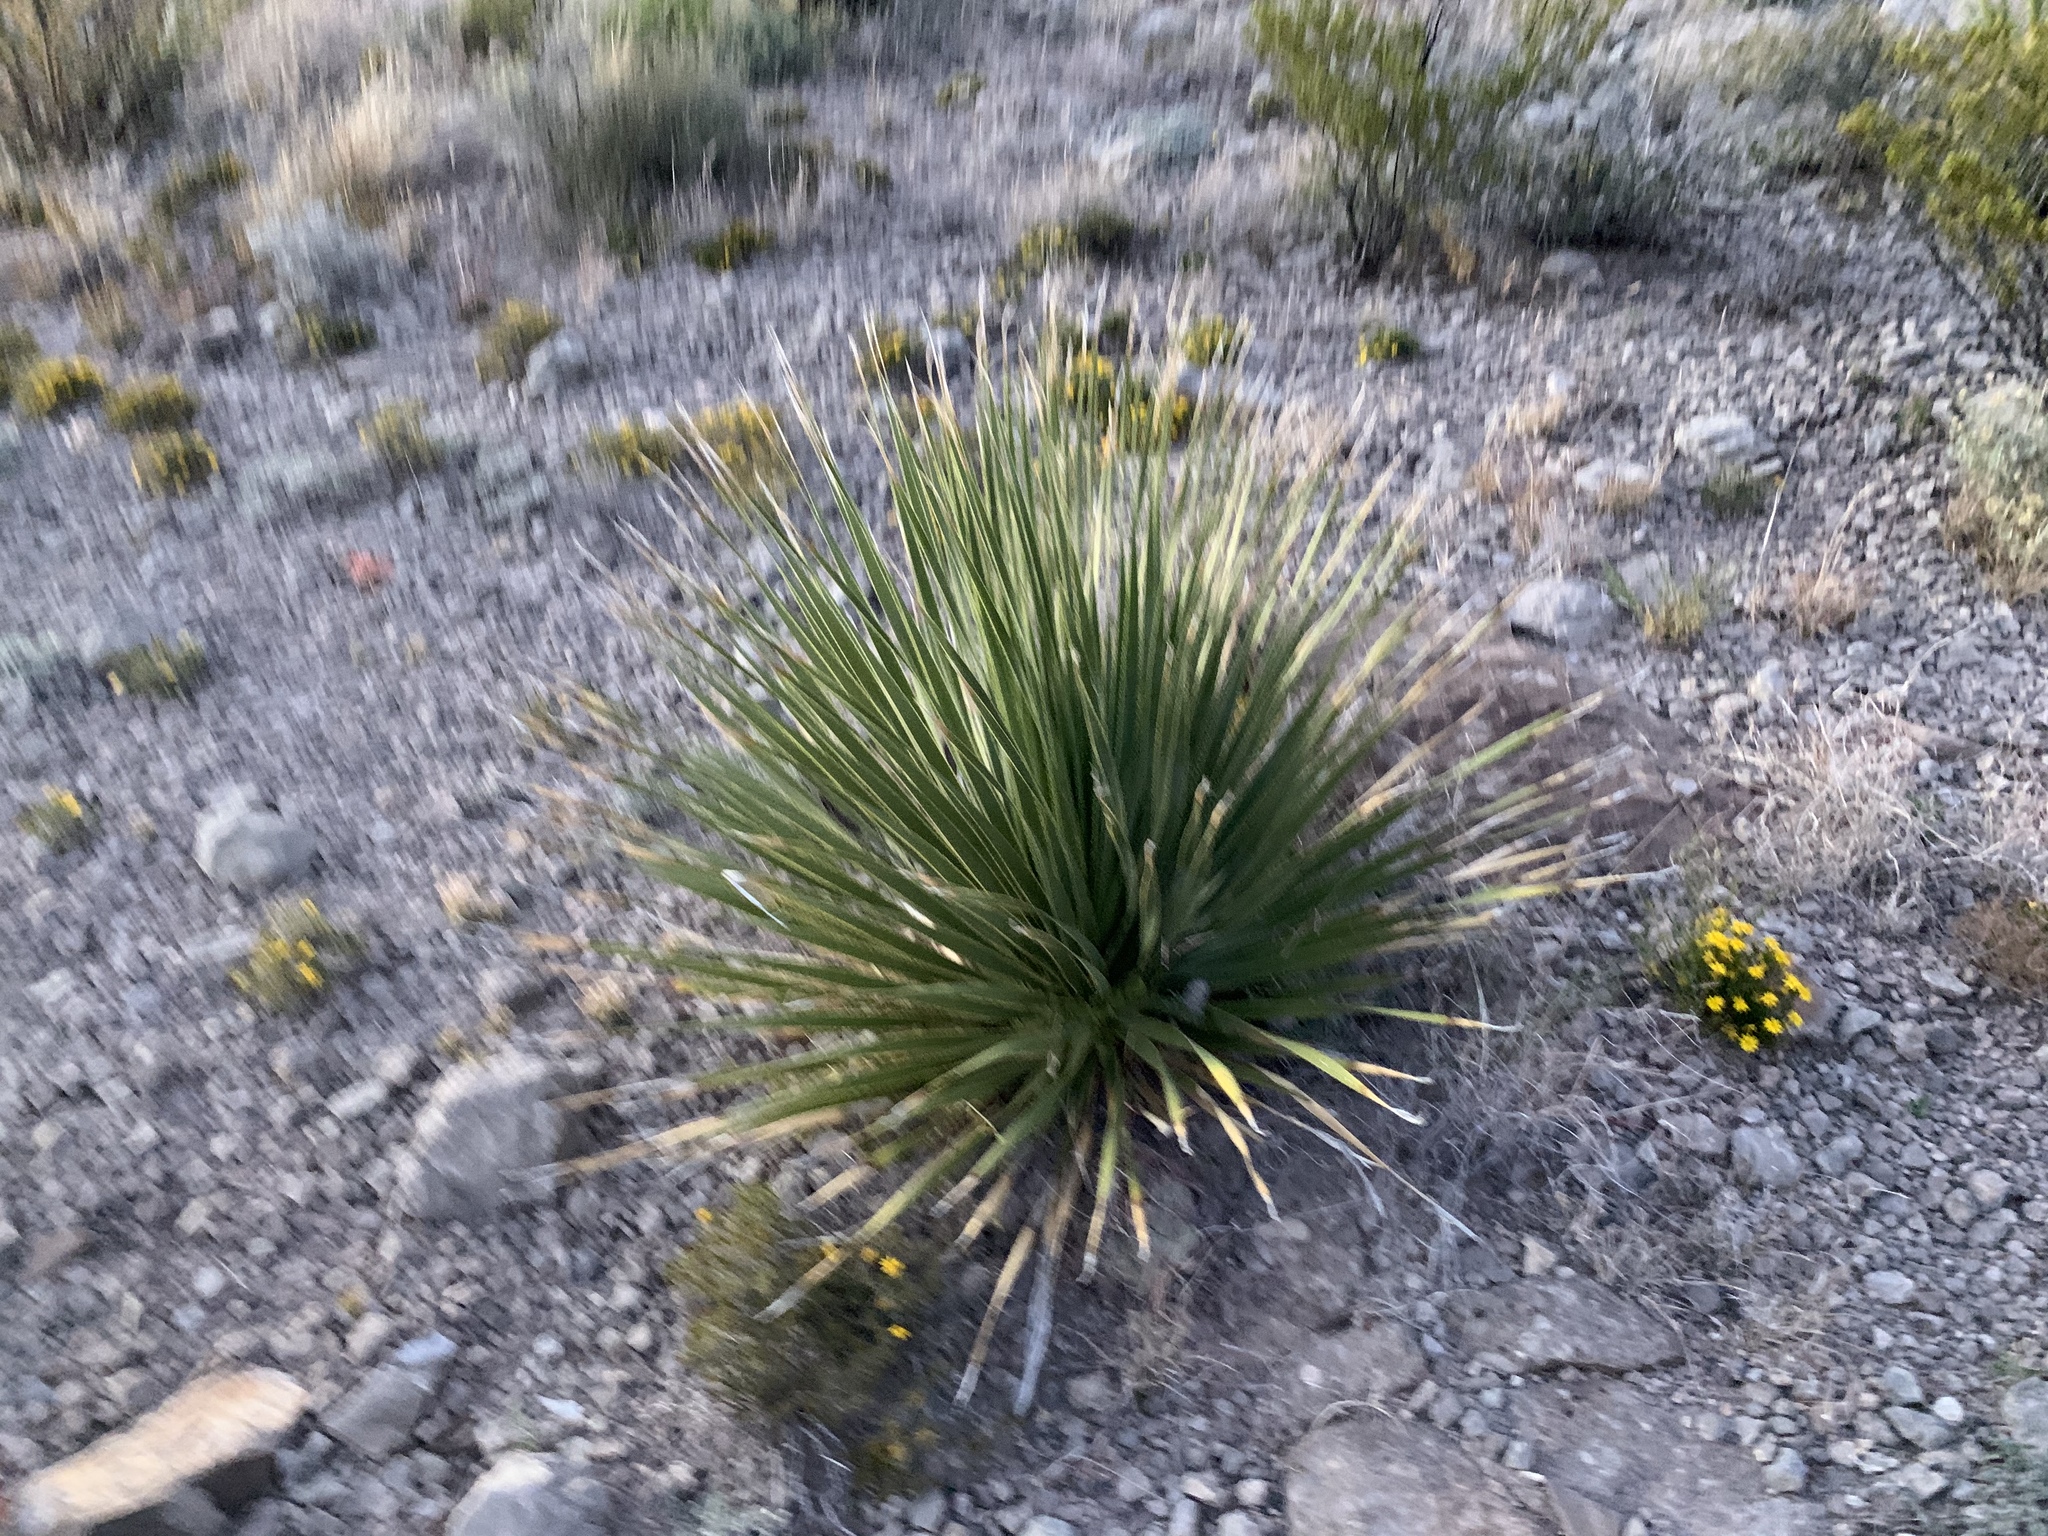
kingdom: Plantae
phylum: Tracheophyta
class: Liliopsida
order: Asparagales
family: Asparagaceae
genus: Dasylirion
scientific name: Dasylirion wheeleri
